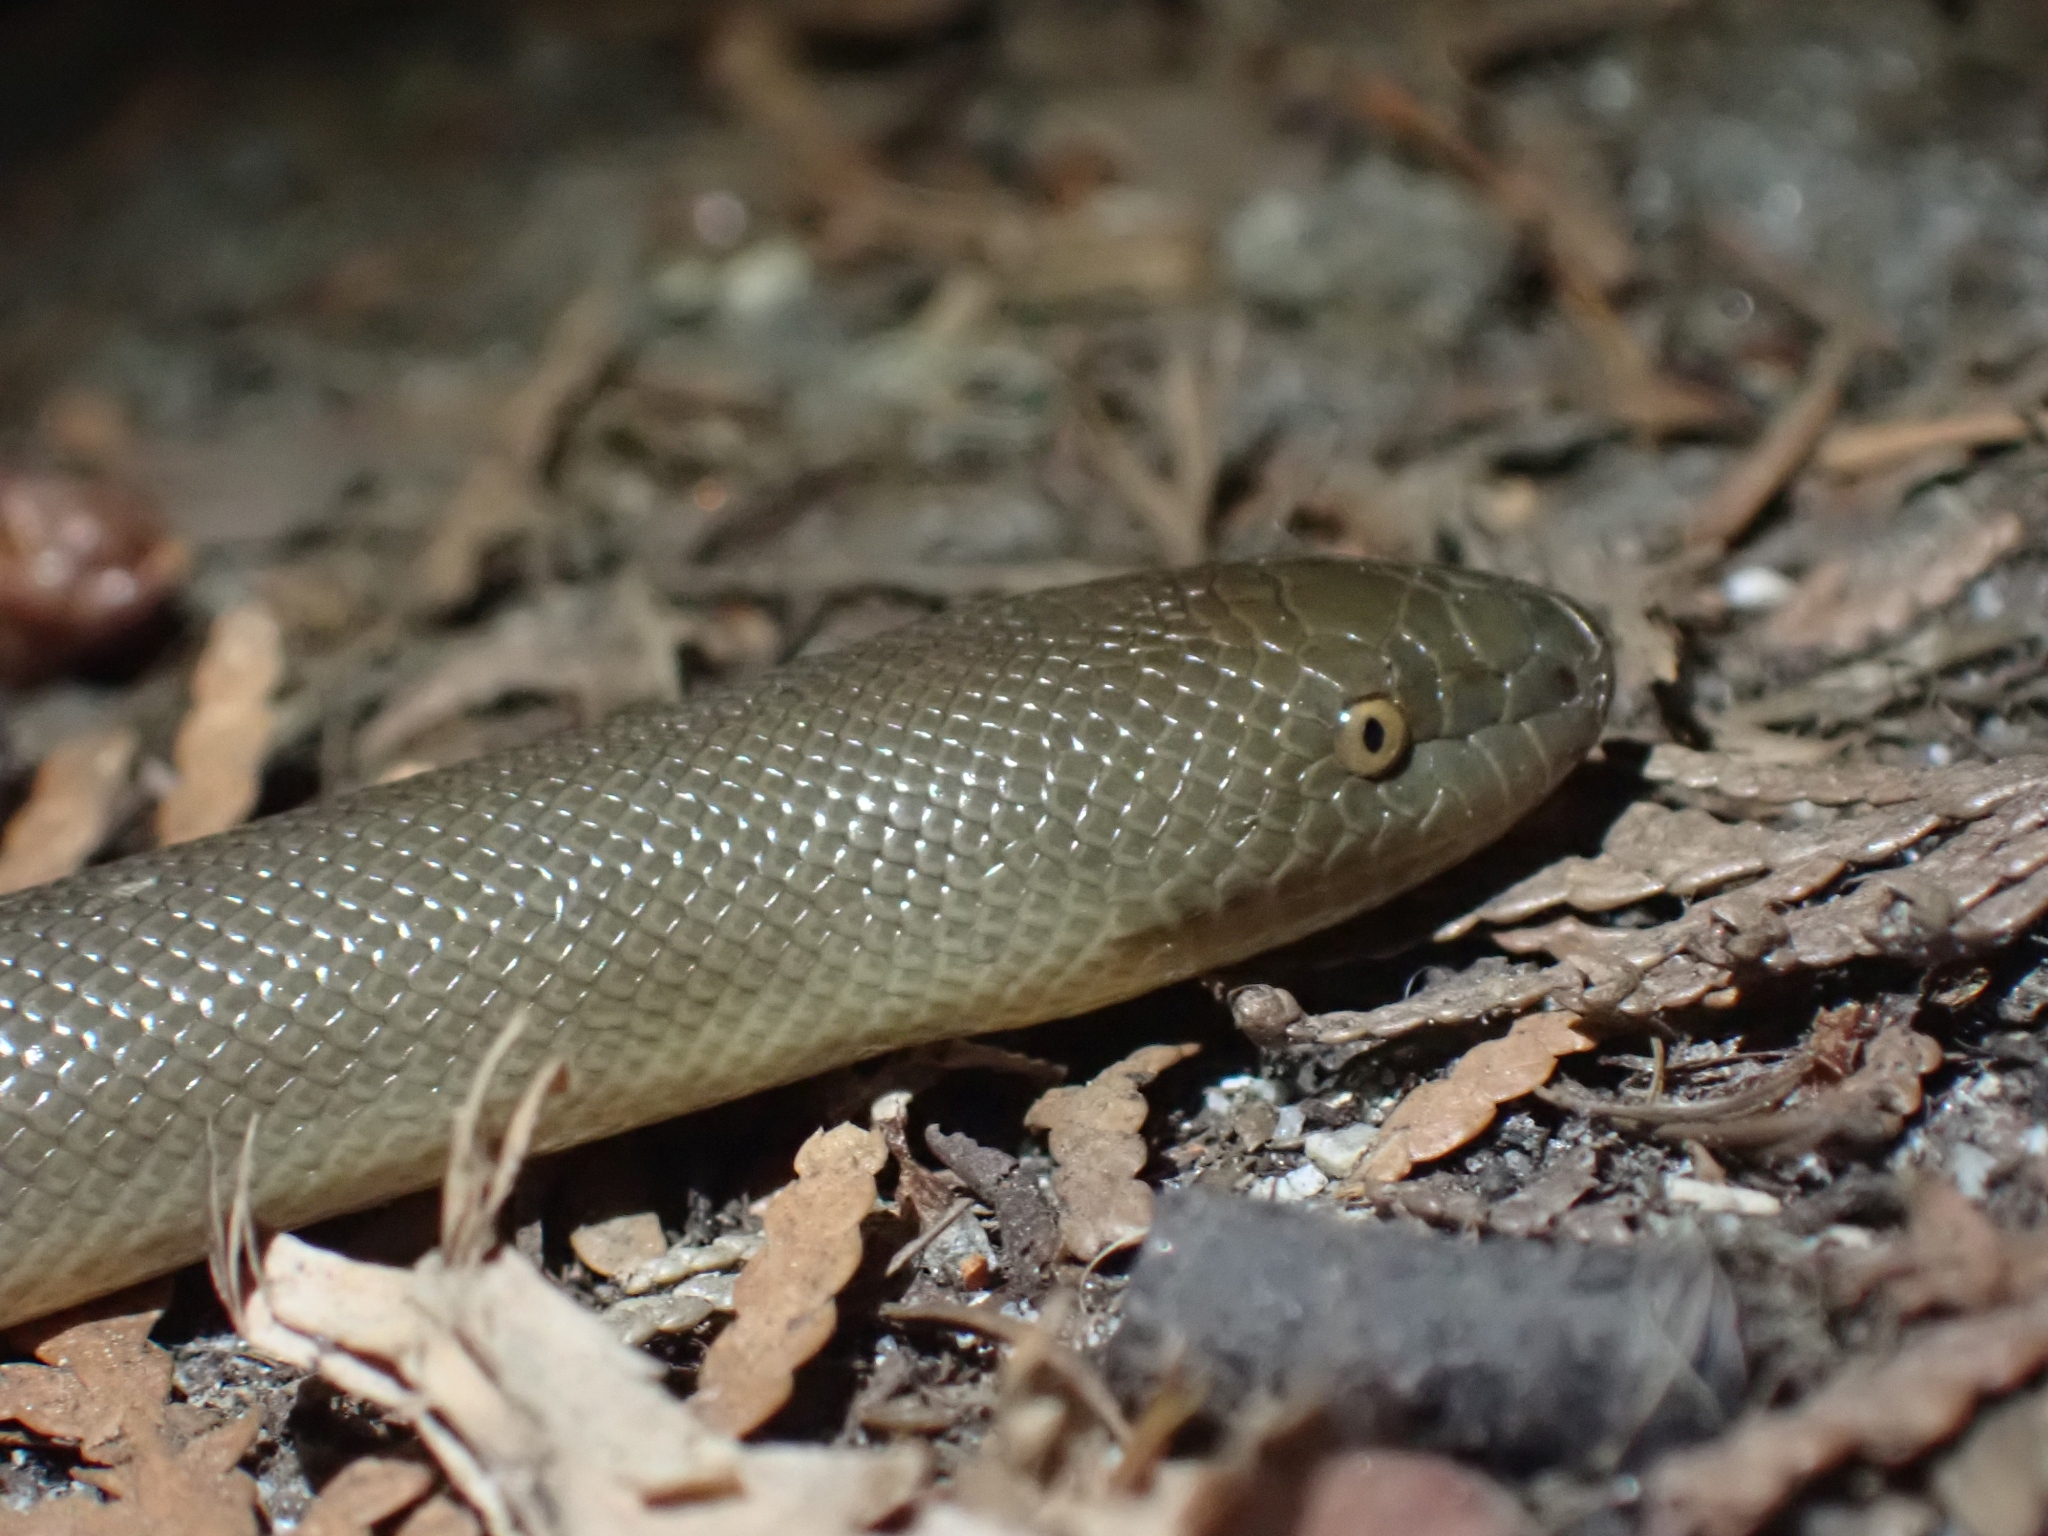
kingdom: Animalia
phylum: Chordata
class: Squamata
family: Boidae
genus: Charina
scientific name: Charina bottae
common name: Northern rubber boa
